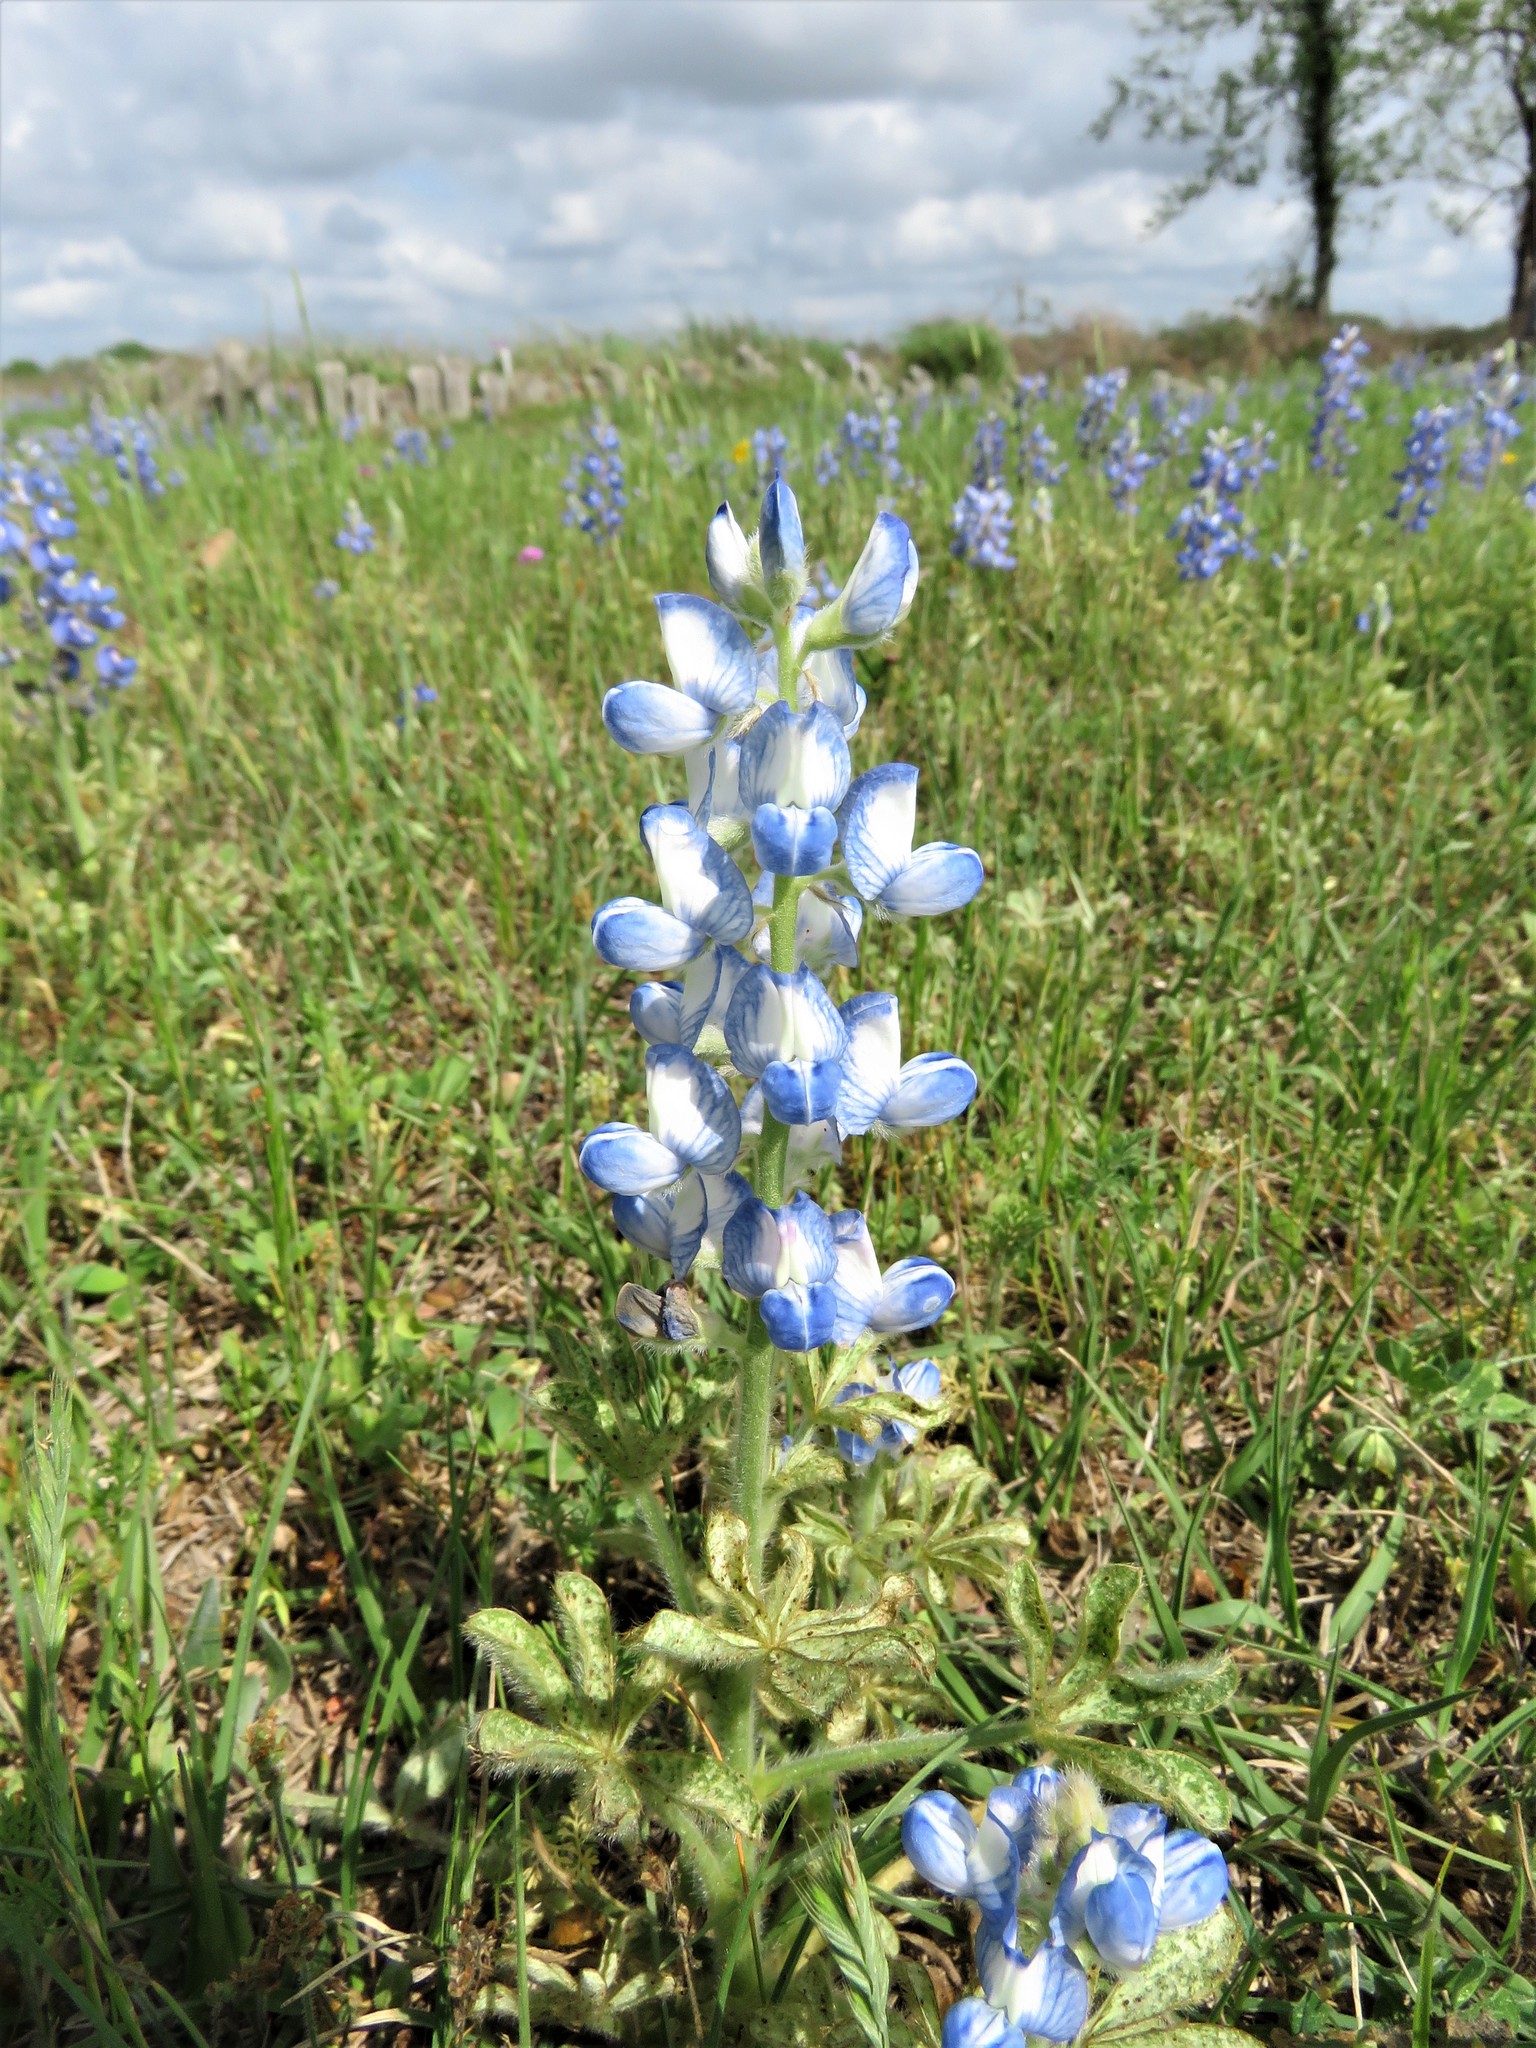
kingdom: Plantae
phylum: Tracheophyta
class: Magnoliopsida
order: Fabales
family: Fabaceae
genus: Lupinus
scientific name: Lupinus subcarnosus
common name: Texas bluebonnet
